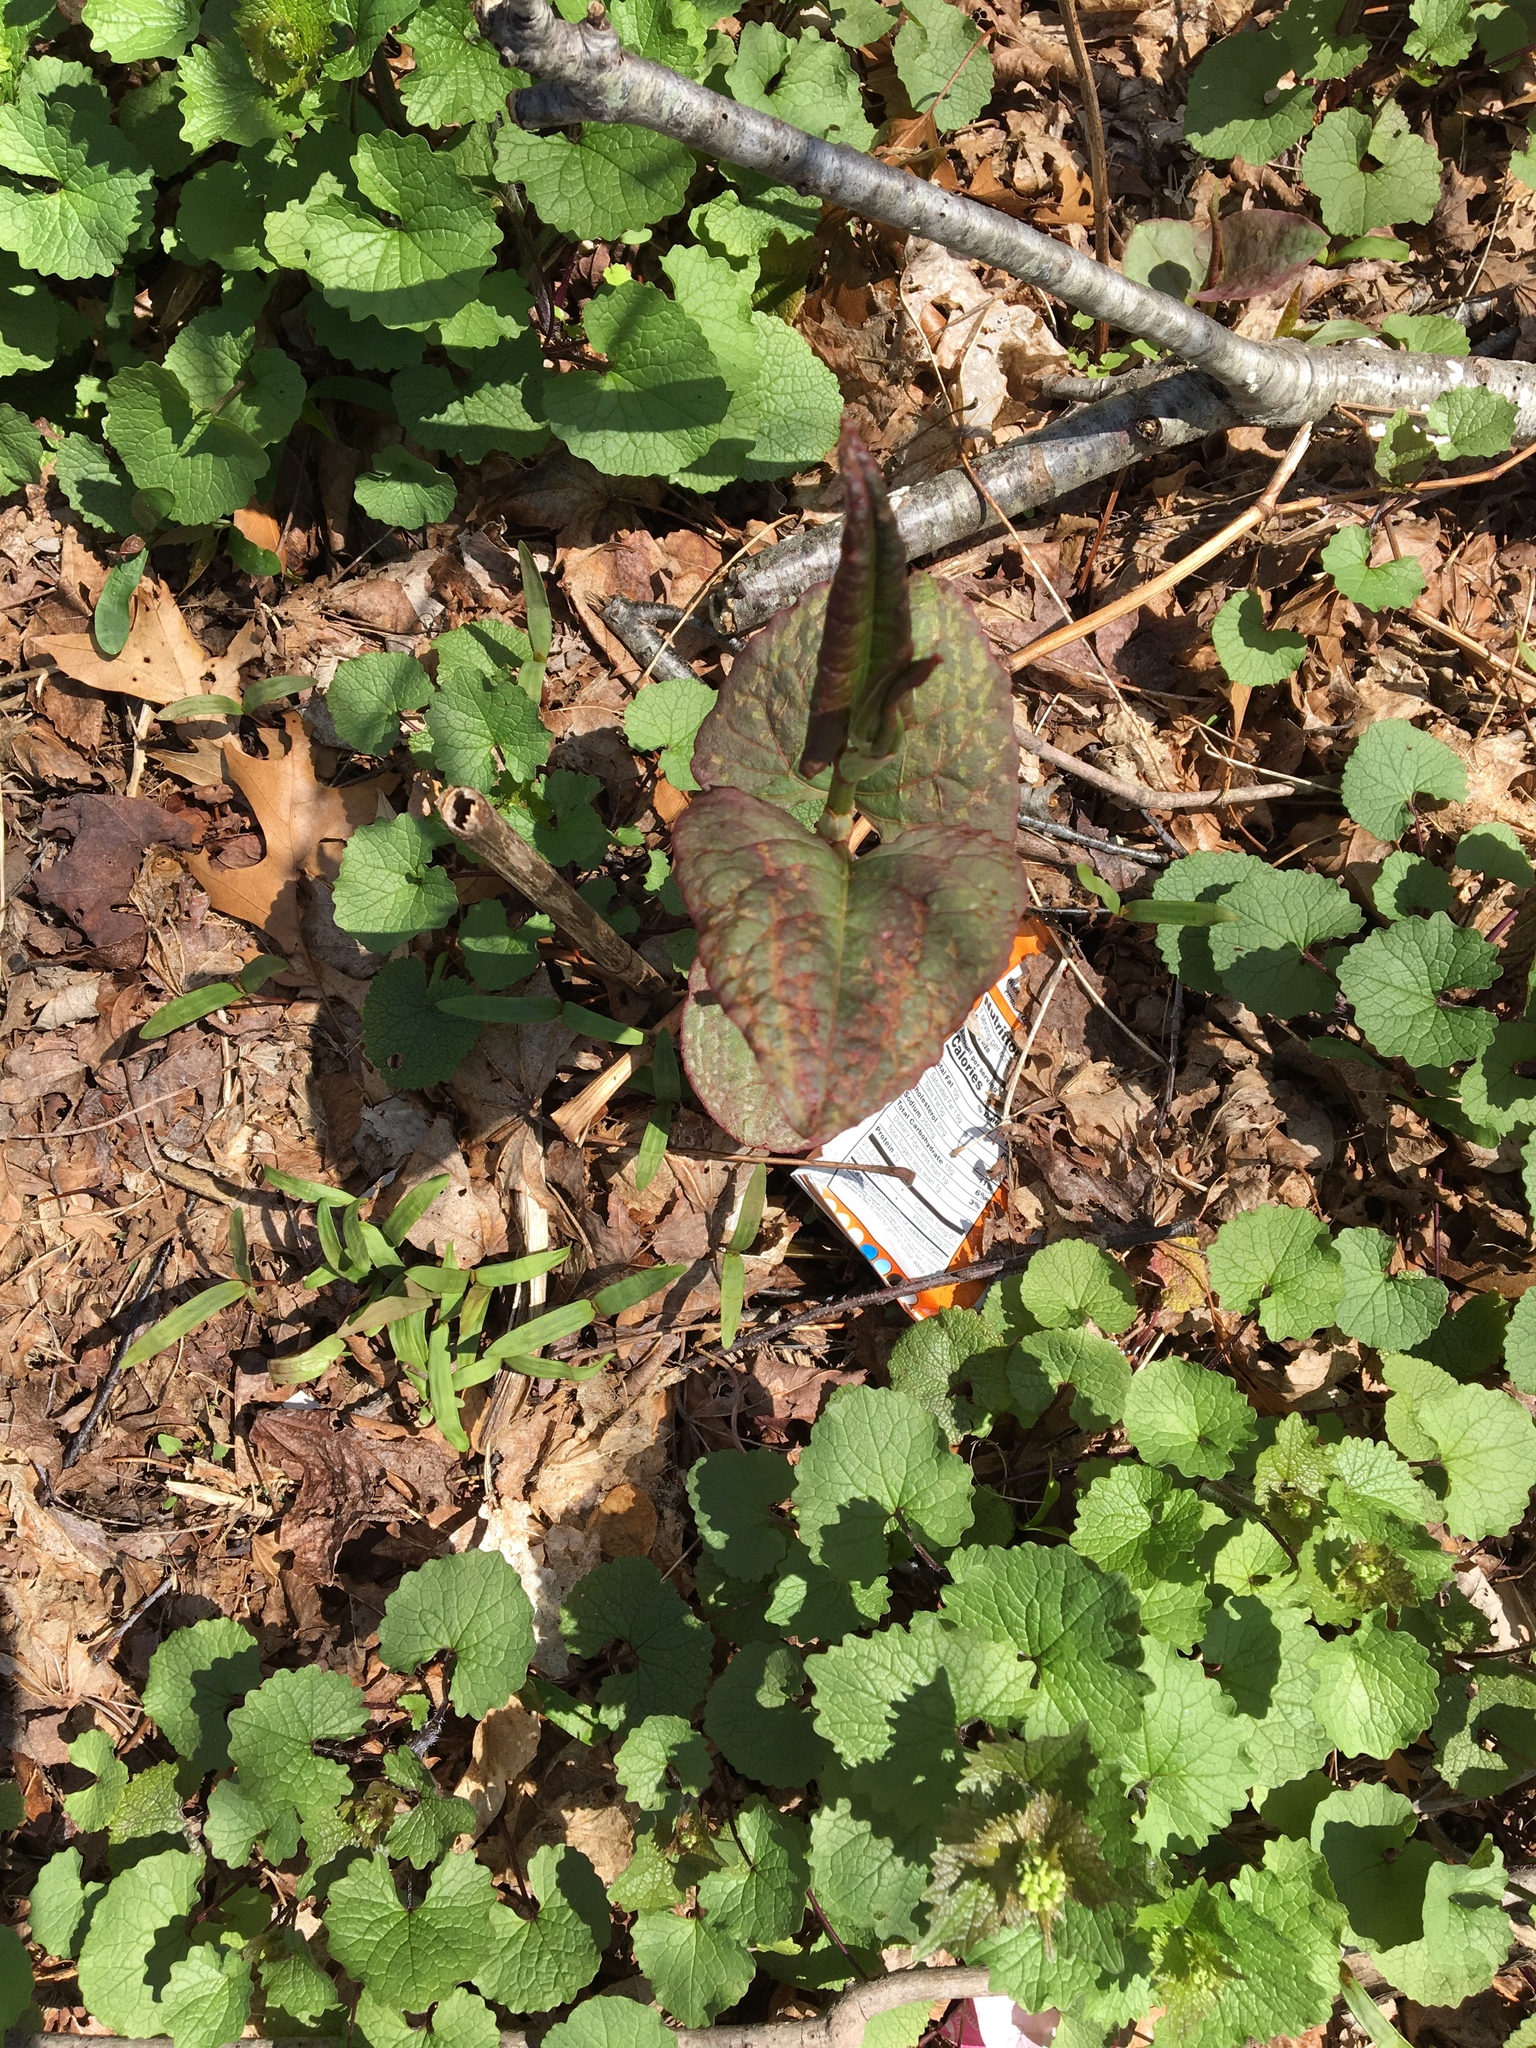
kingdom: Plantae
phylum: Tracheophyta
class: Magnoliopsida
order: Caryophyllales
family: Polygonaceae
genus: Reynoutria
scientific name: Reynoutria japonica
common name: Japanese knotweed
